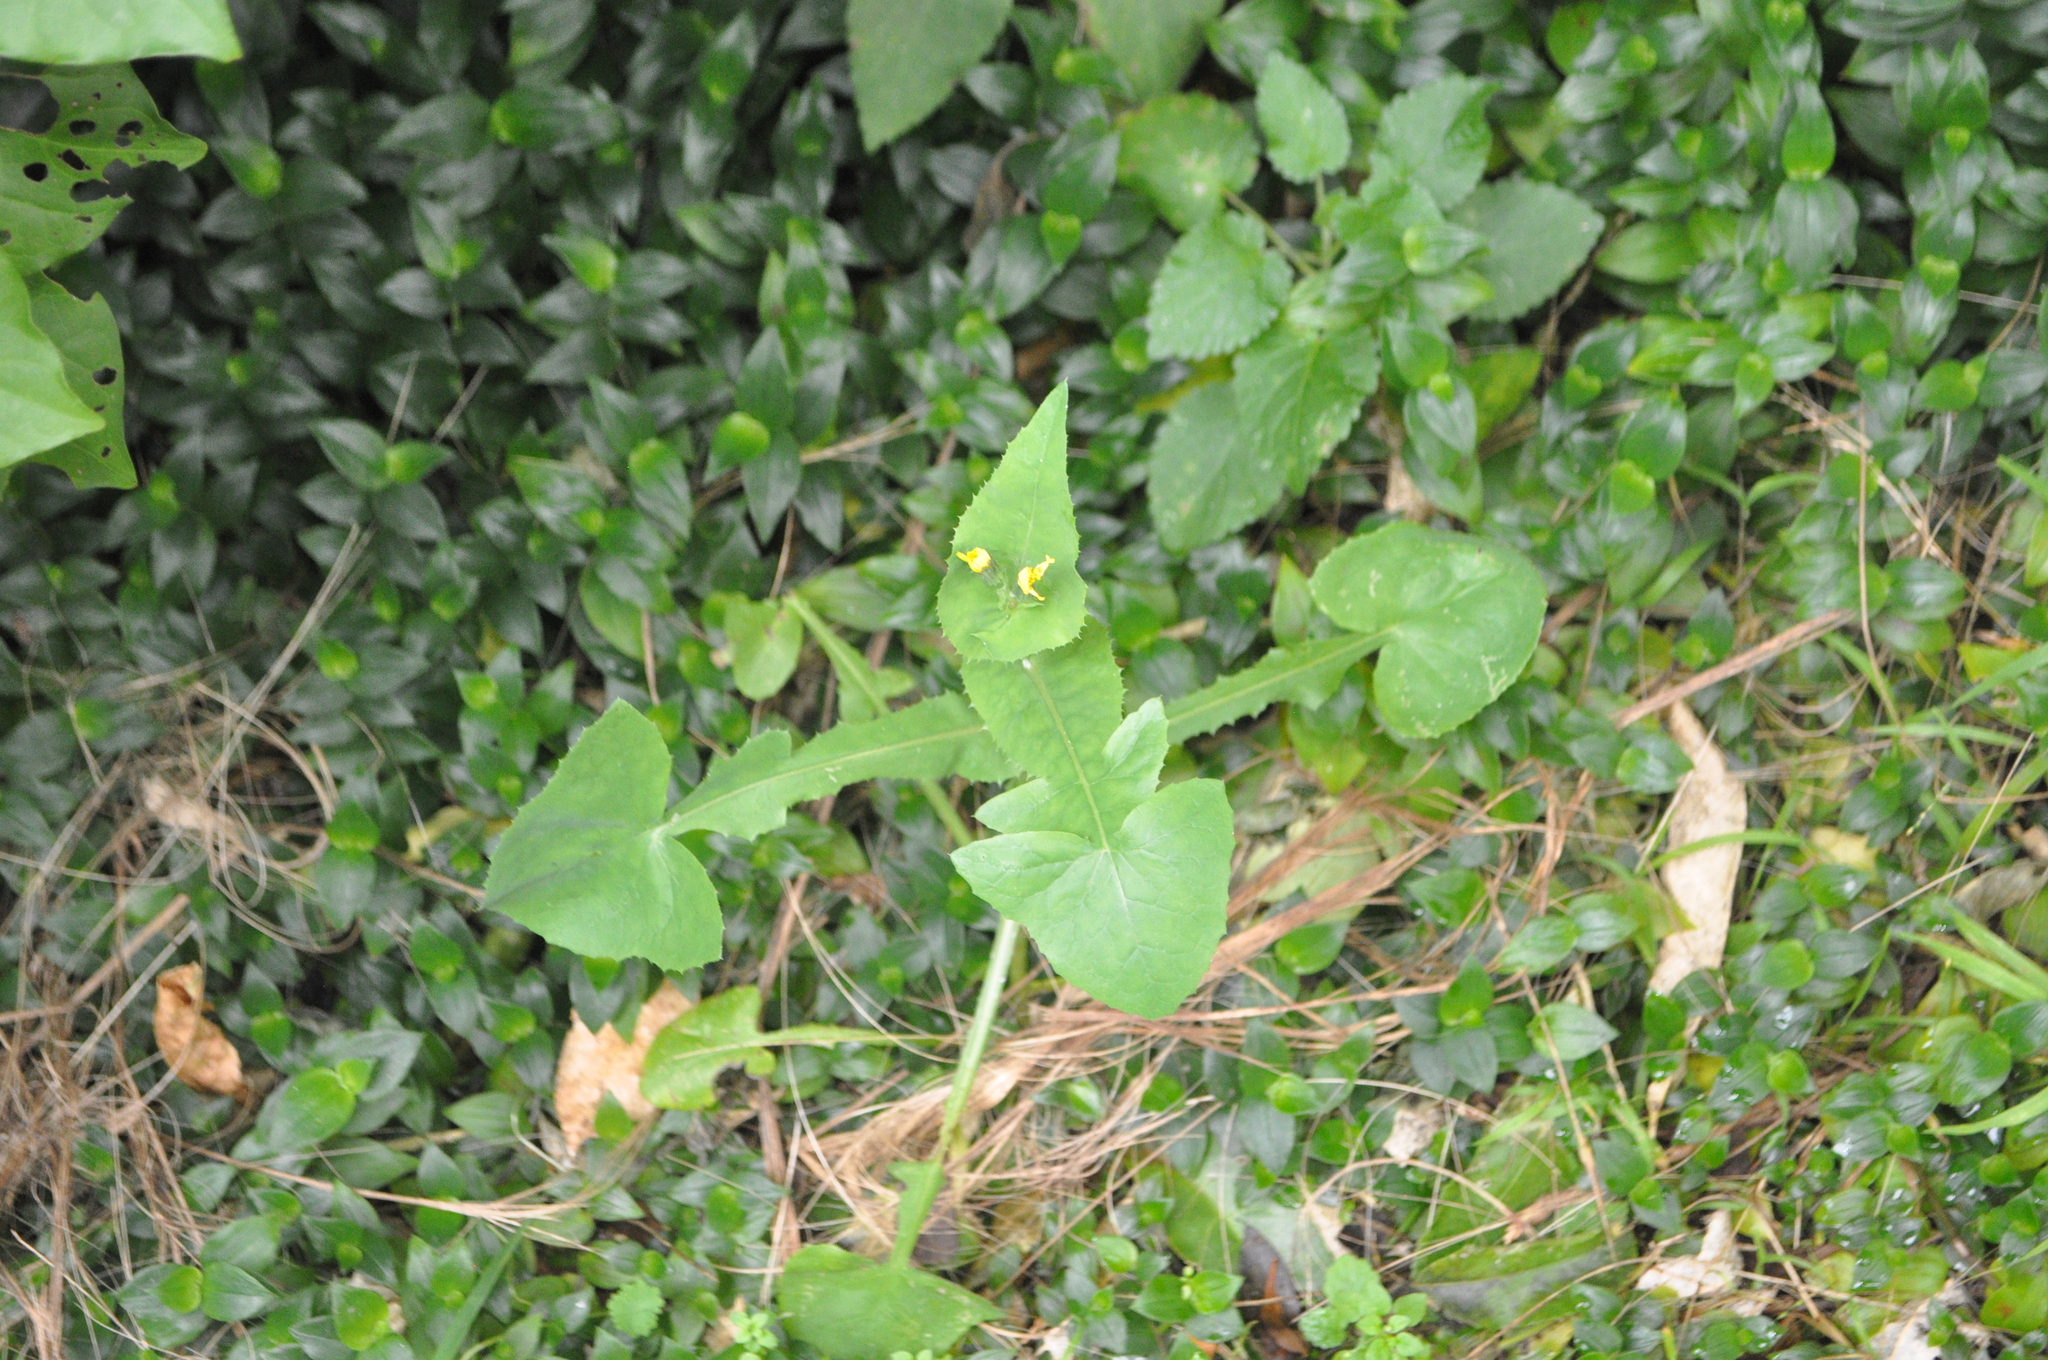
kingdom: Plantae
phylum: Tracheophyta
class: Magnoliopsida
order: Asterales
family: Asteraceae
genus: Sonchus
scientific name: Sonchus oleraceus
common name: Common sowthistle
